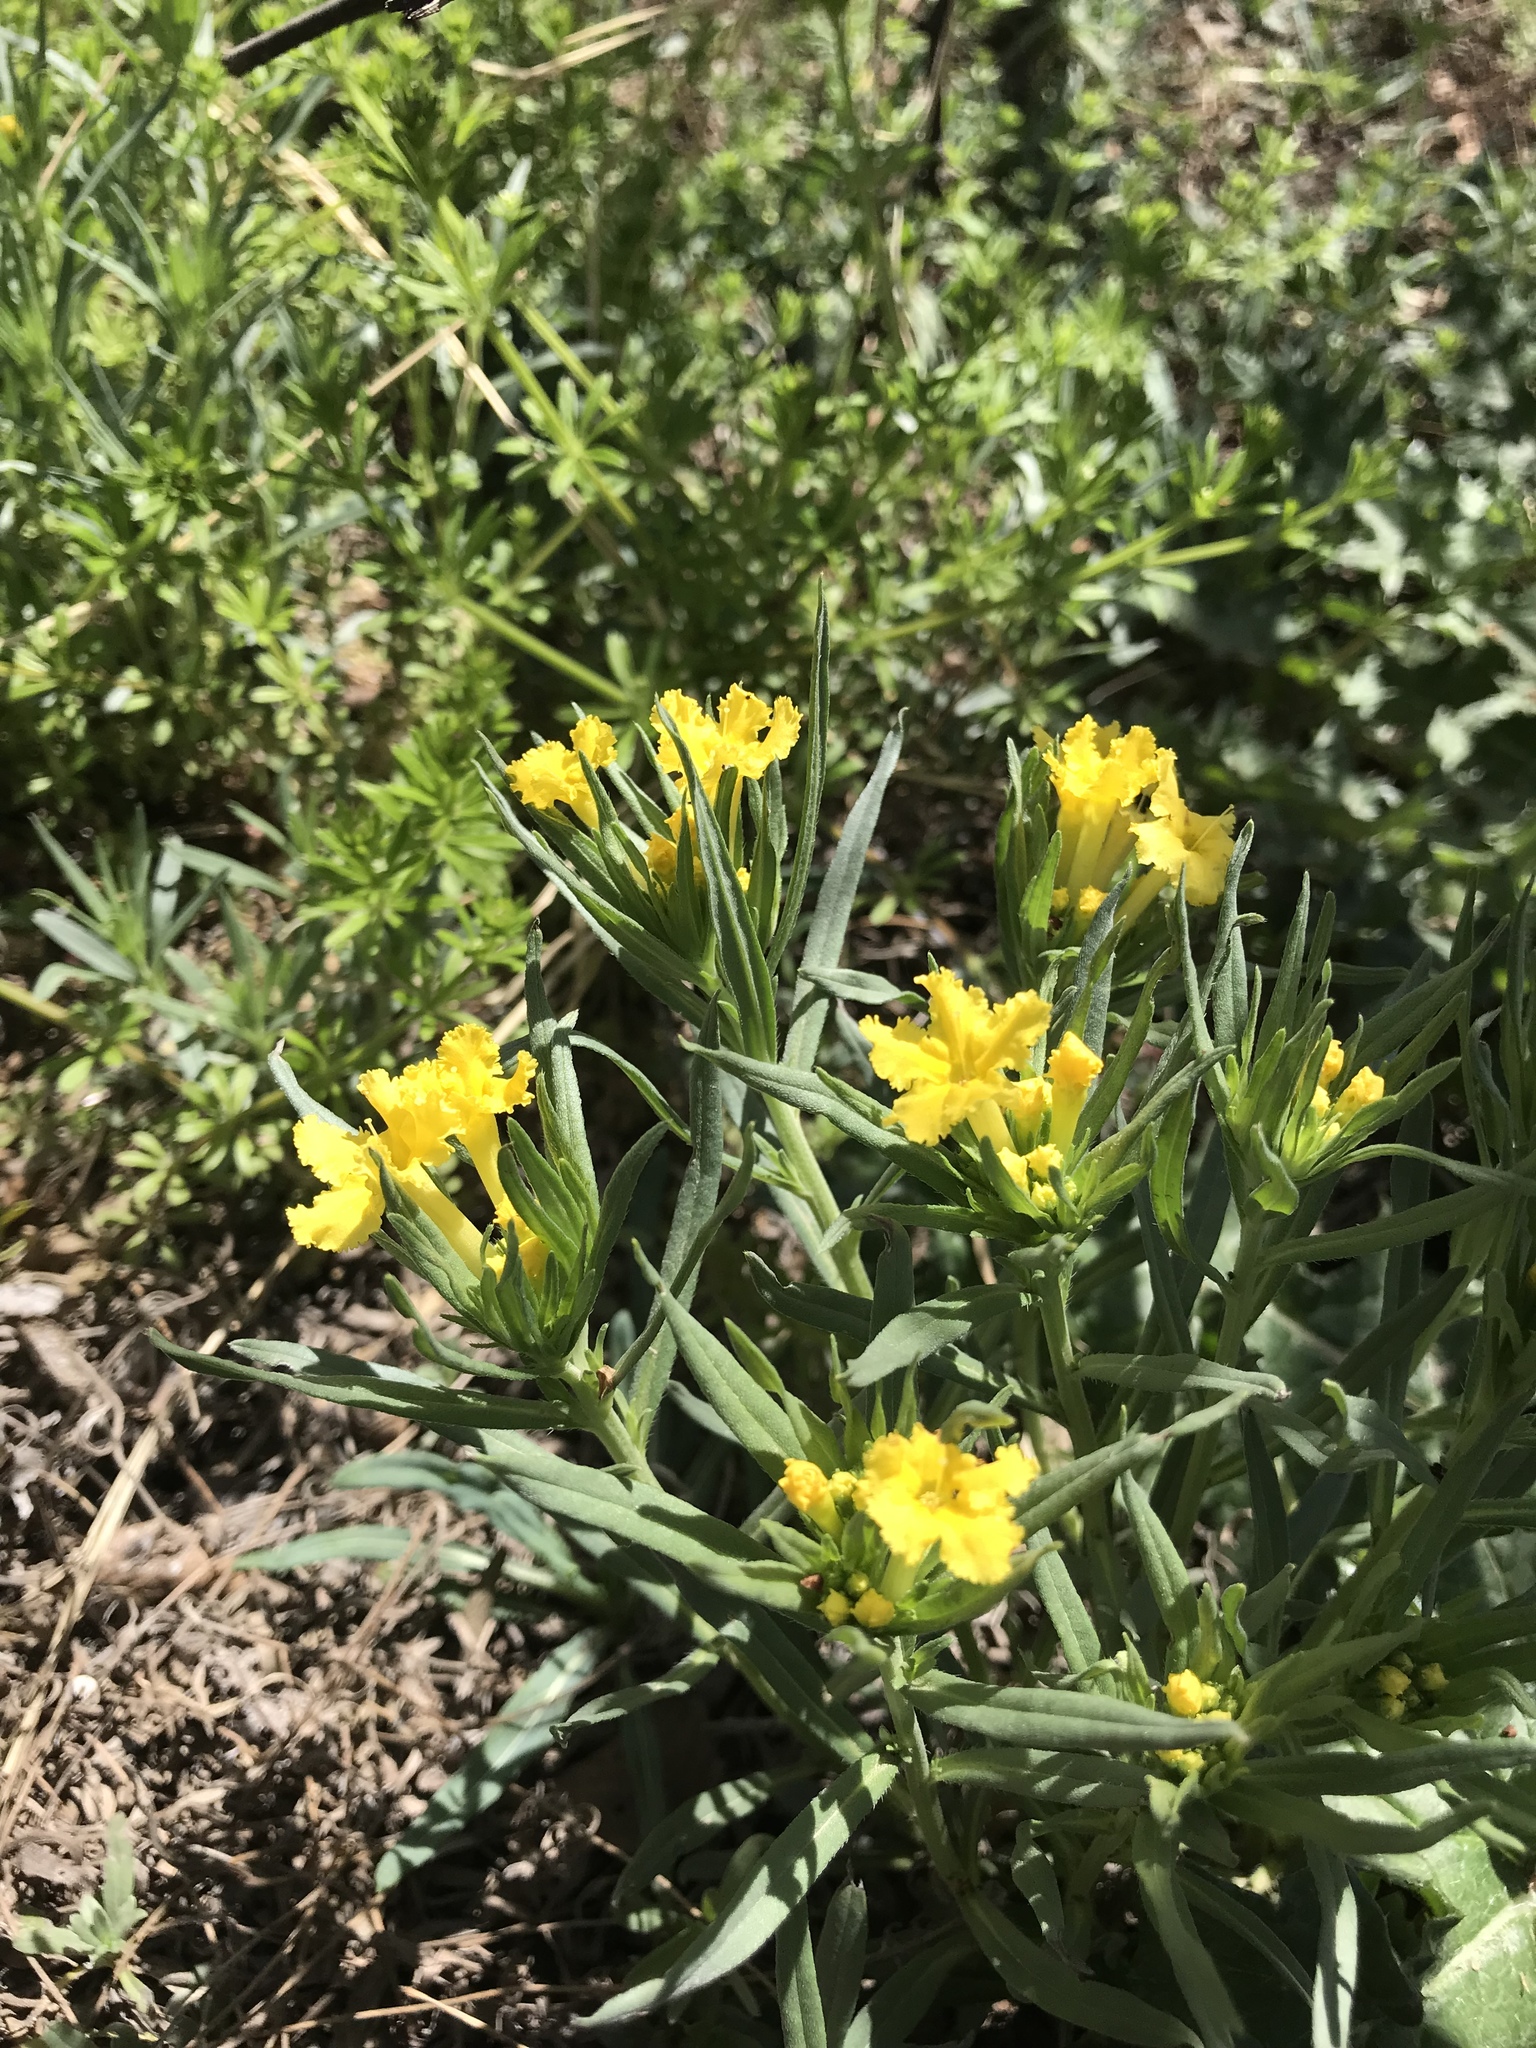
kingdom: Plantae
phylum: Tracheophyta
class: Magnoliopsida
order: Boraginales
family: Boraginaceae
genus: Lithospermum
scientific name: Lithospermum incisum
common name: Fringed gromwell
